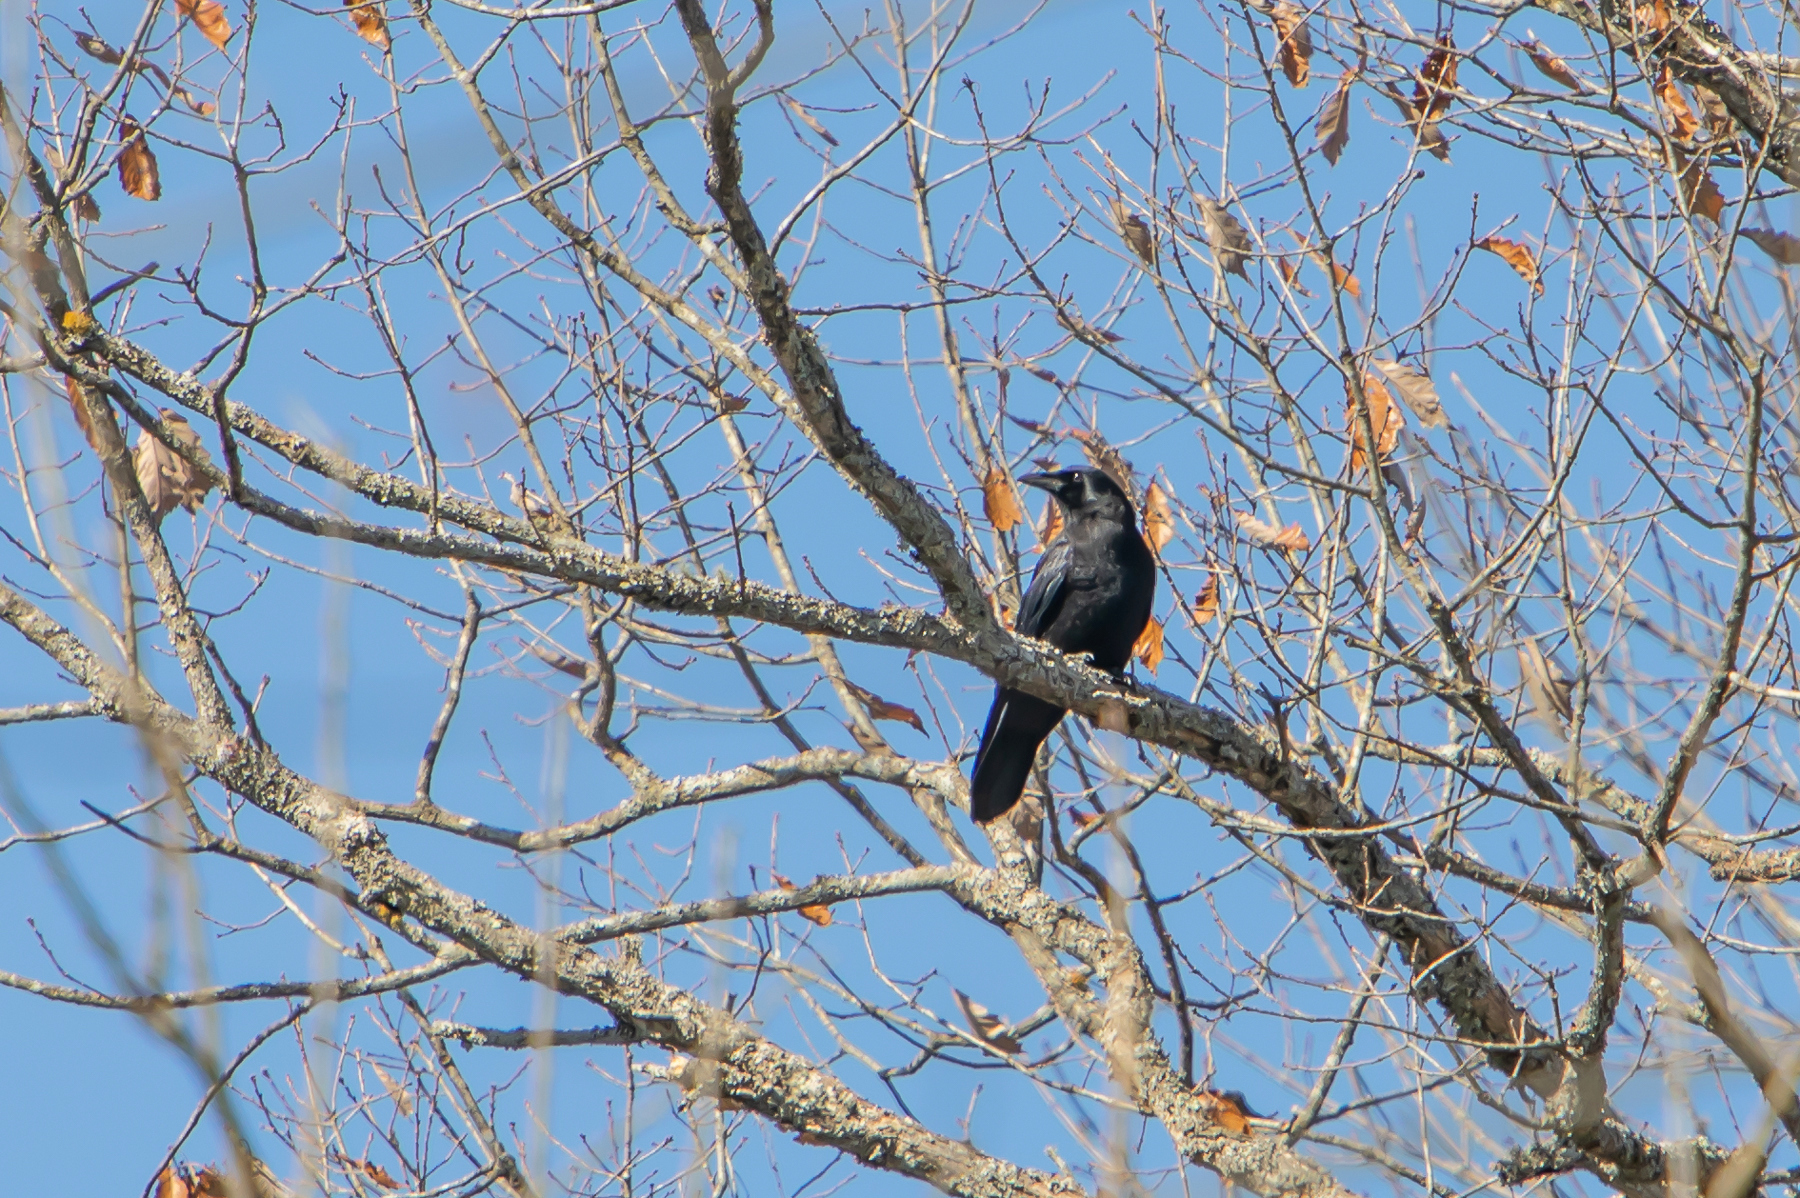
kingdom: Animalia
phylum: Chordata
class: Aves
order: Passeriformes
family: Corvidae
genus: Corvus
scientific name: Corvus brachyrhynchos
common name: American crow
